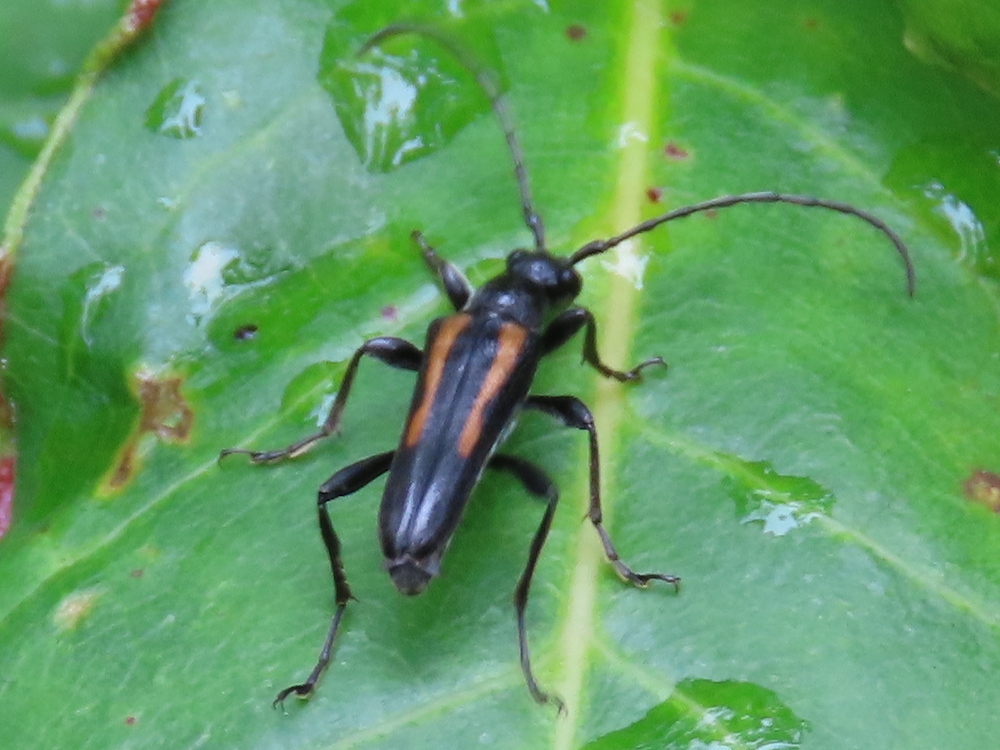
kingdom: Animalia
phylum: Arthropoda
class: Insecta
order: Coleoptera
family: Cerambycidae
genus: Strangalepta
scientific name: Strangalepta abbreviata
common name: Strangalepta flower longhorn beetle
